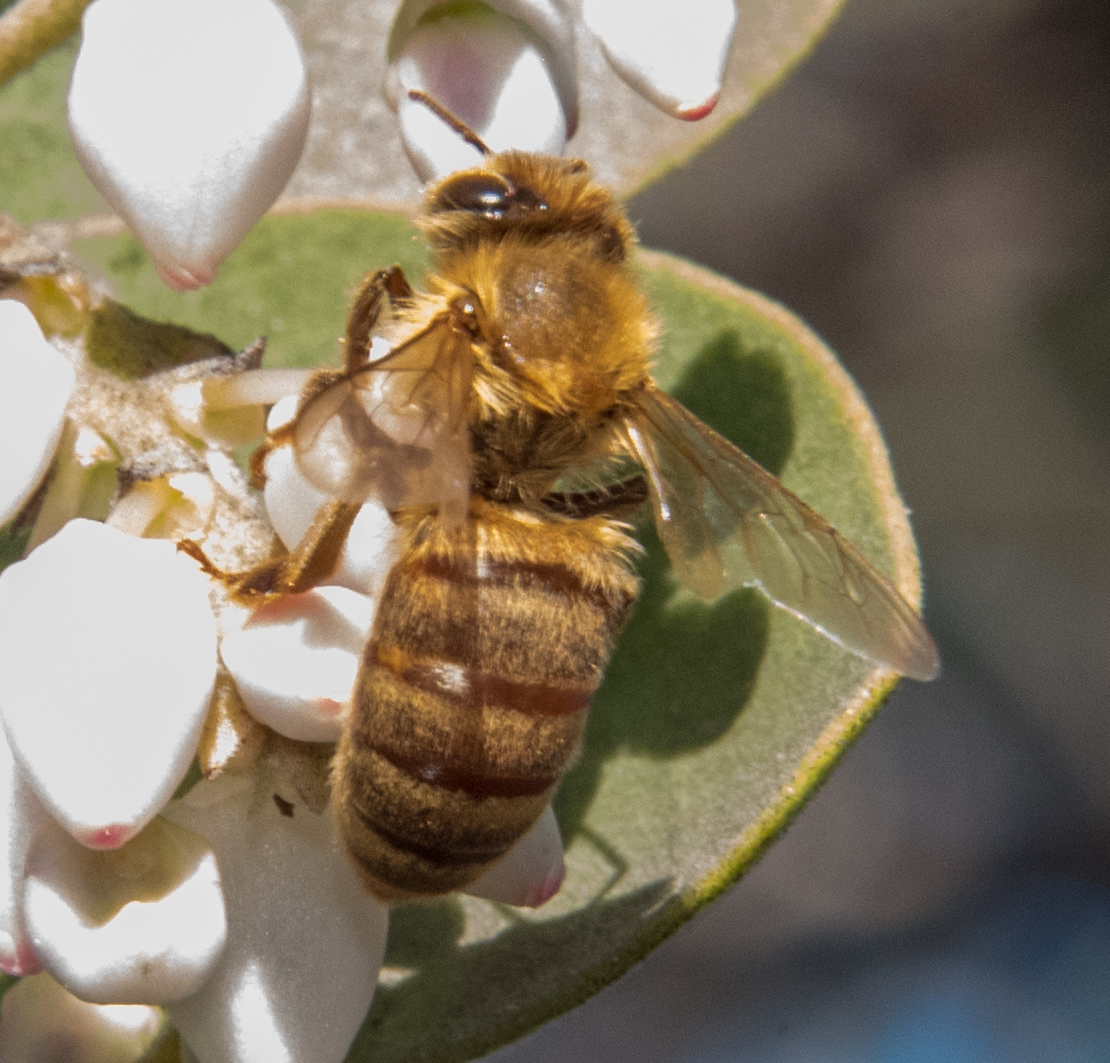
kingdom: Animalia
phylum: Arthropoda
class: Insecta
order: Hymenoptera
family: Apidae
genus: Apis
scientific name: Apis mellifera
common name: Honey bee
